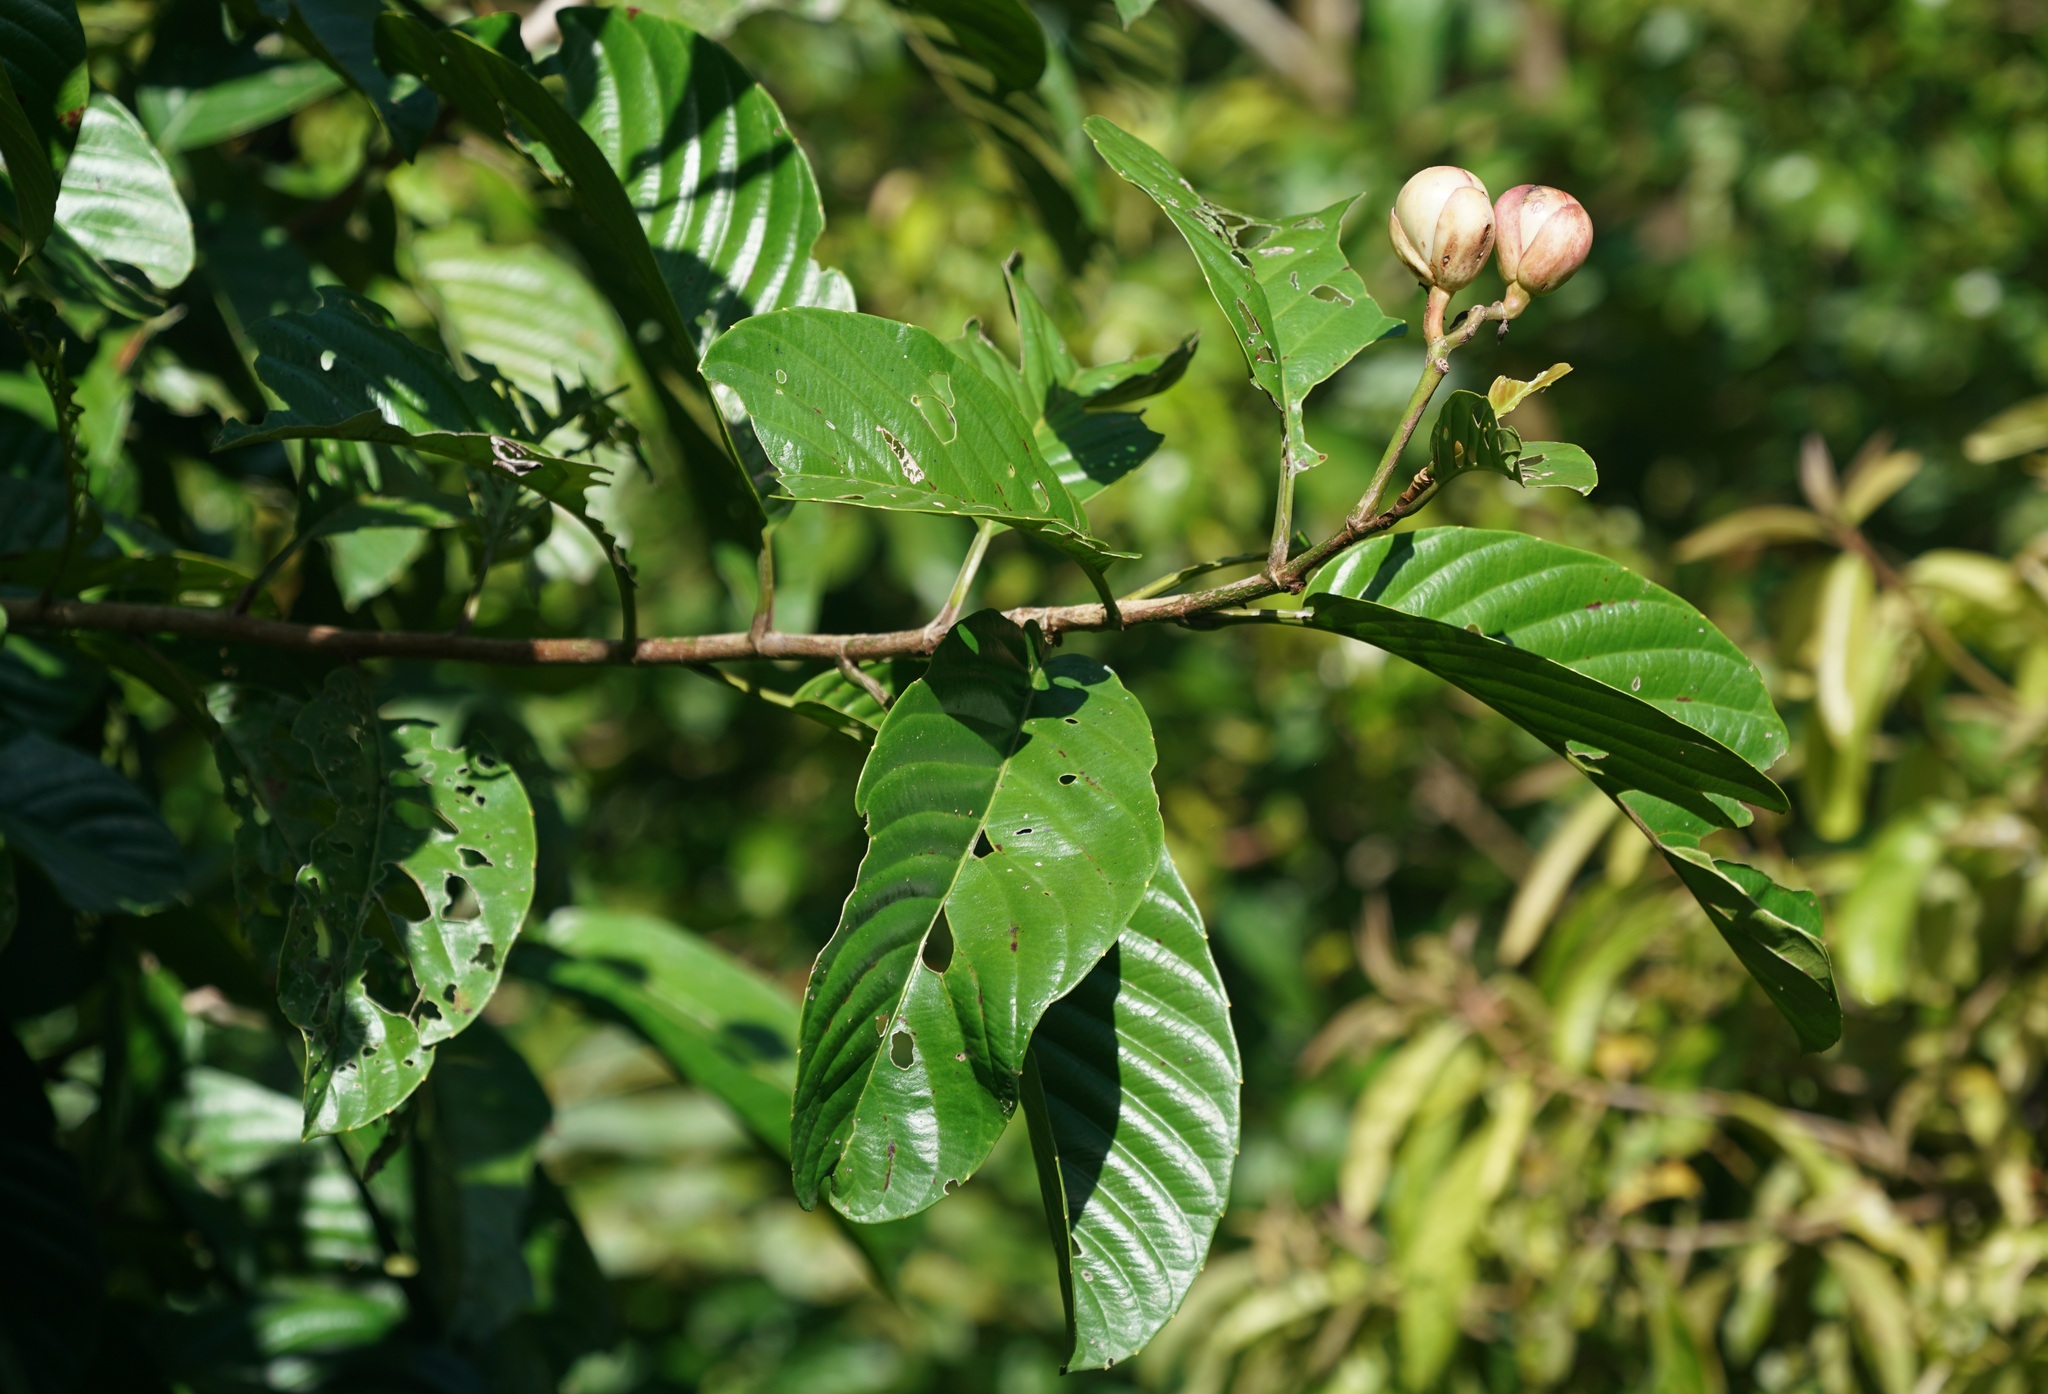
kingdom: Plantae
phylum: Tracheophyta
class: Magnoliopsida
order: Dilleniales
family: Dilleniaceae
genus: Dillenia
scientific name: Dillenia excelsa
